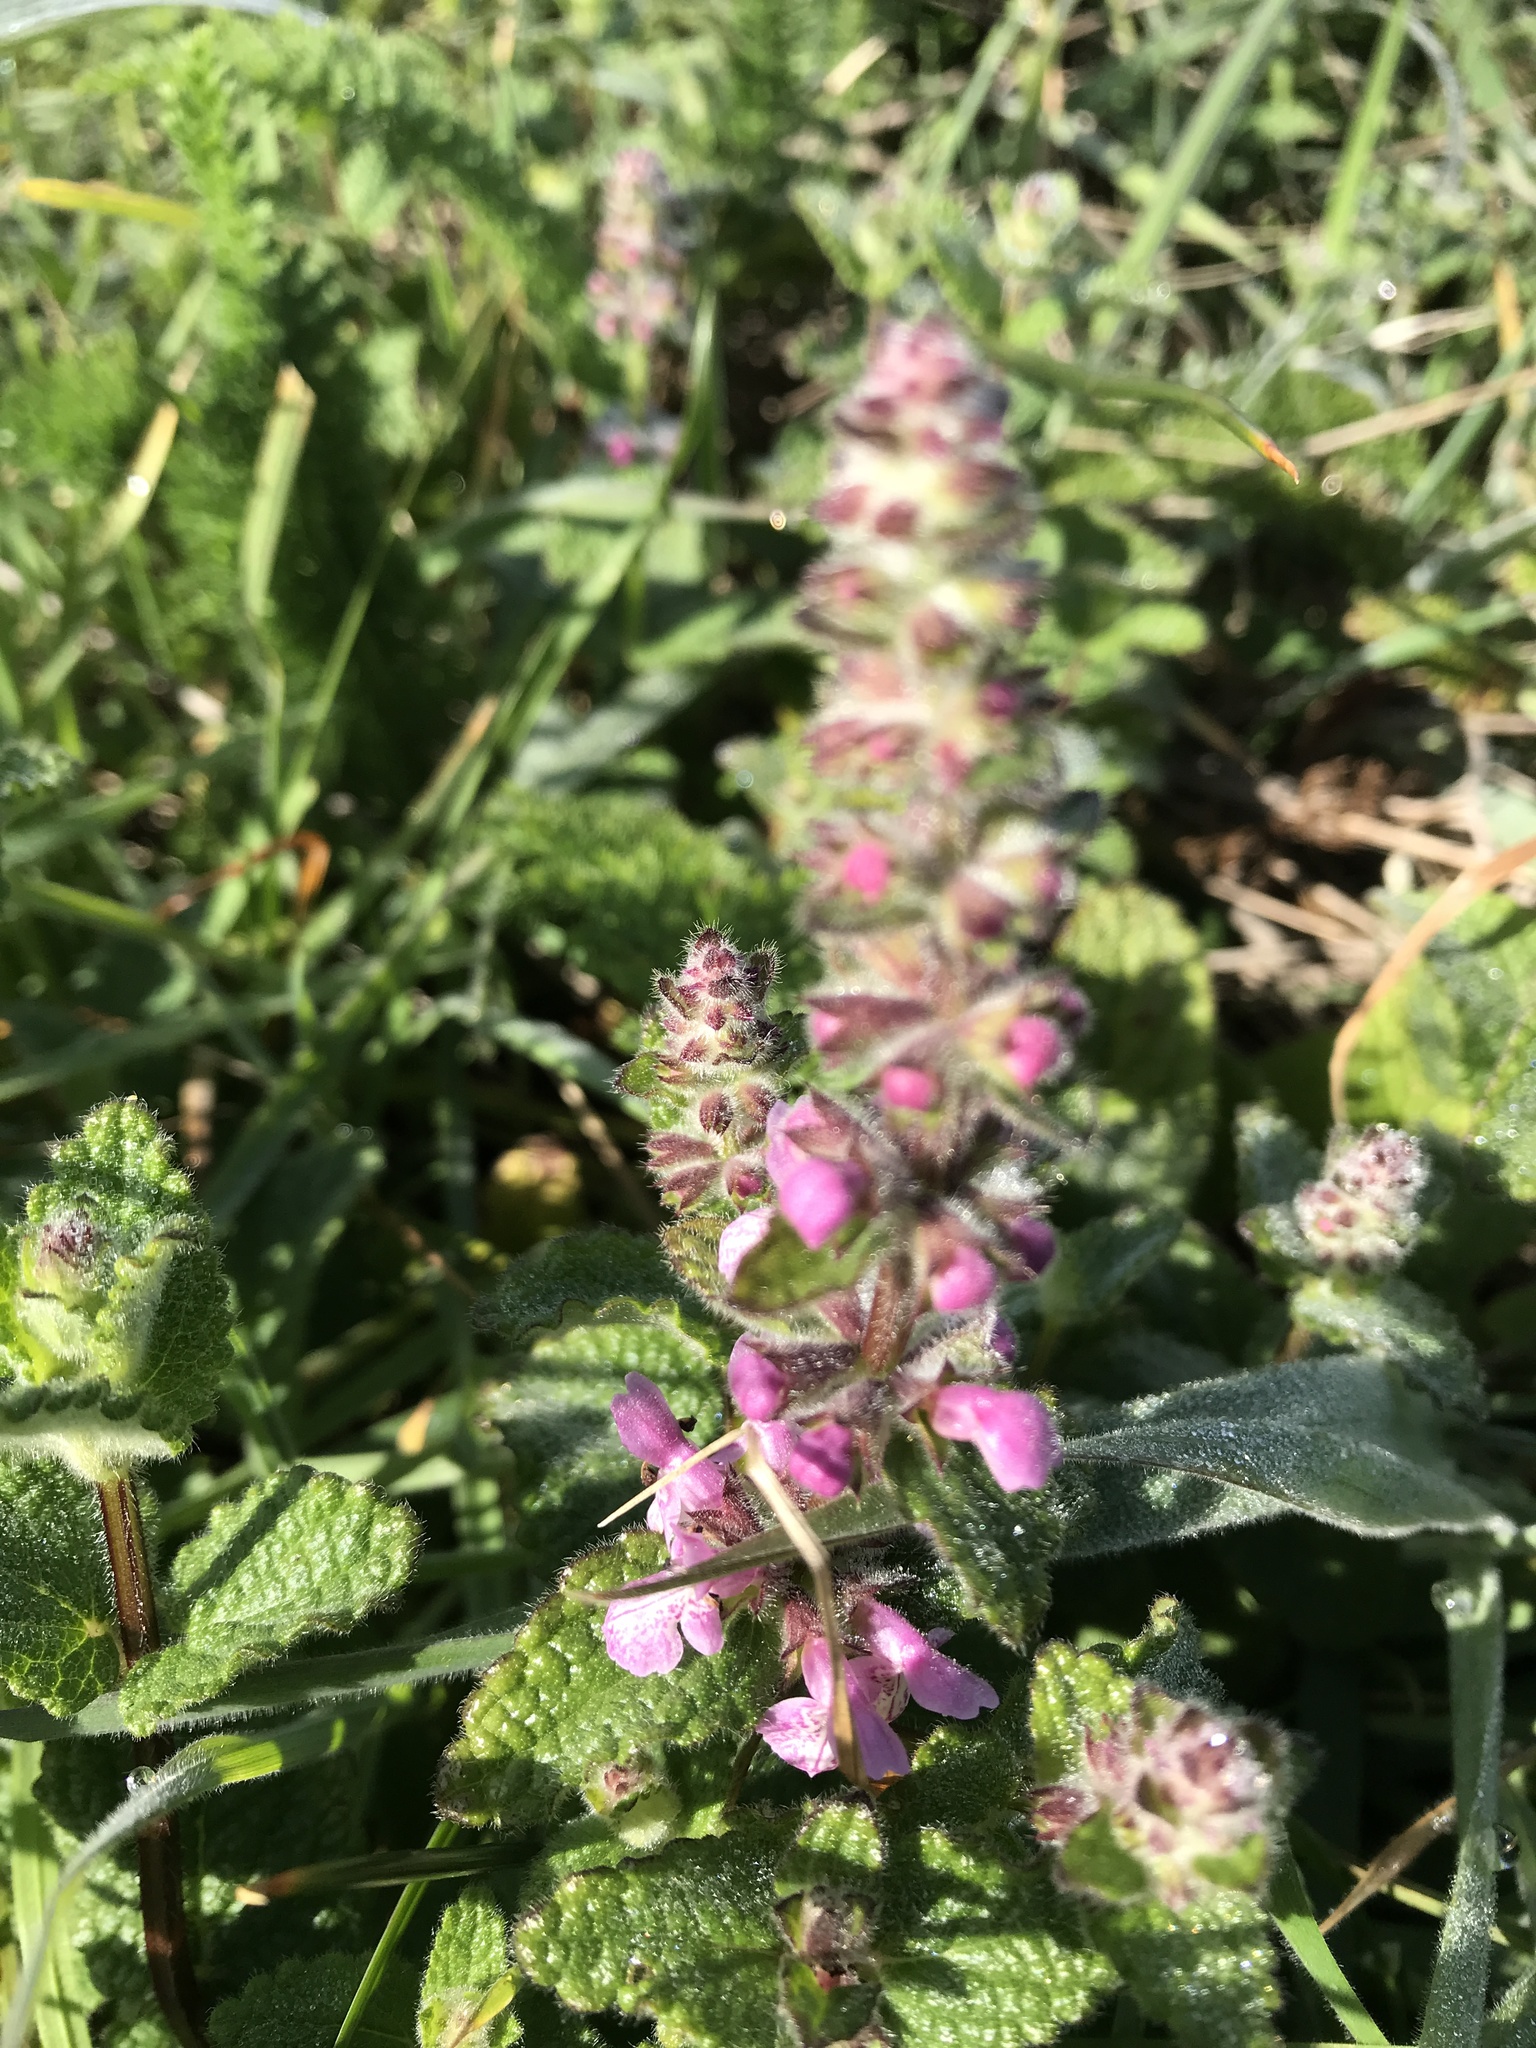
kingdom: Plantae
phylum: Tracheophyta
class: Magnoliopsida
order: Lamiales
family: Lamiaceae
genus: Stachys
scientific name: Stachys bullata
